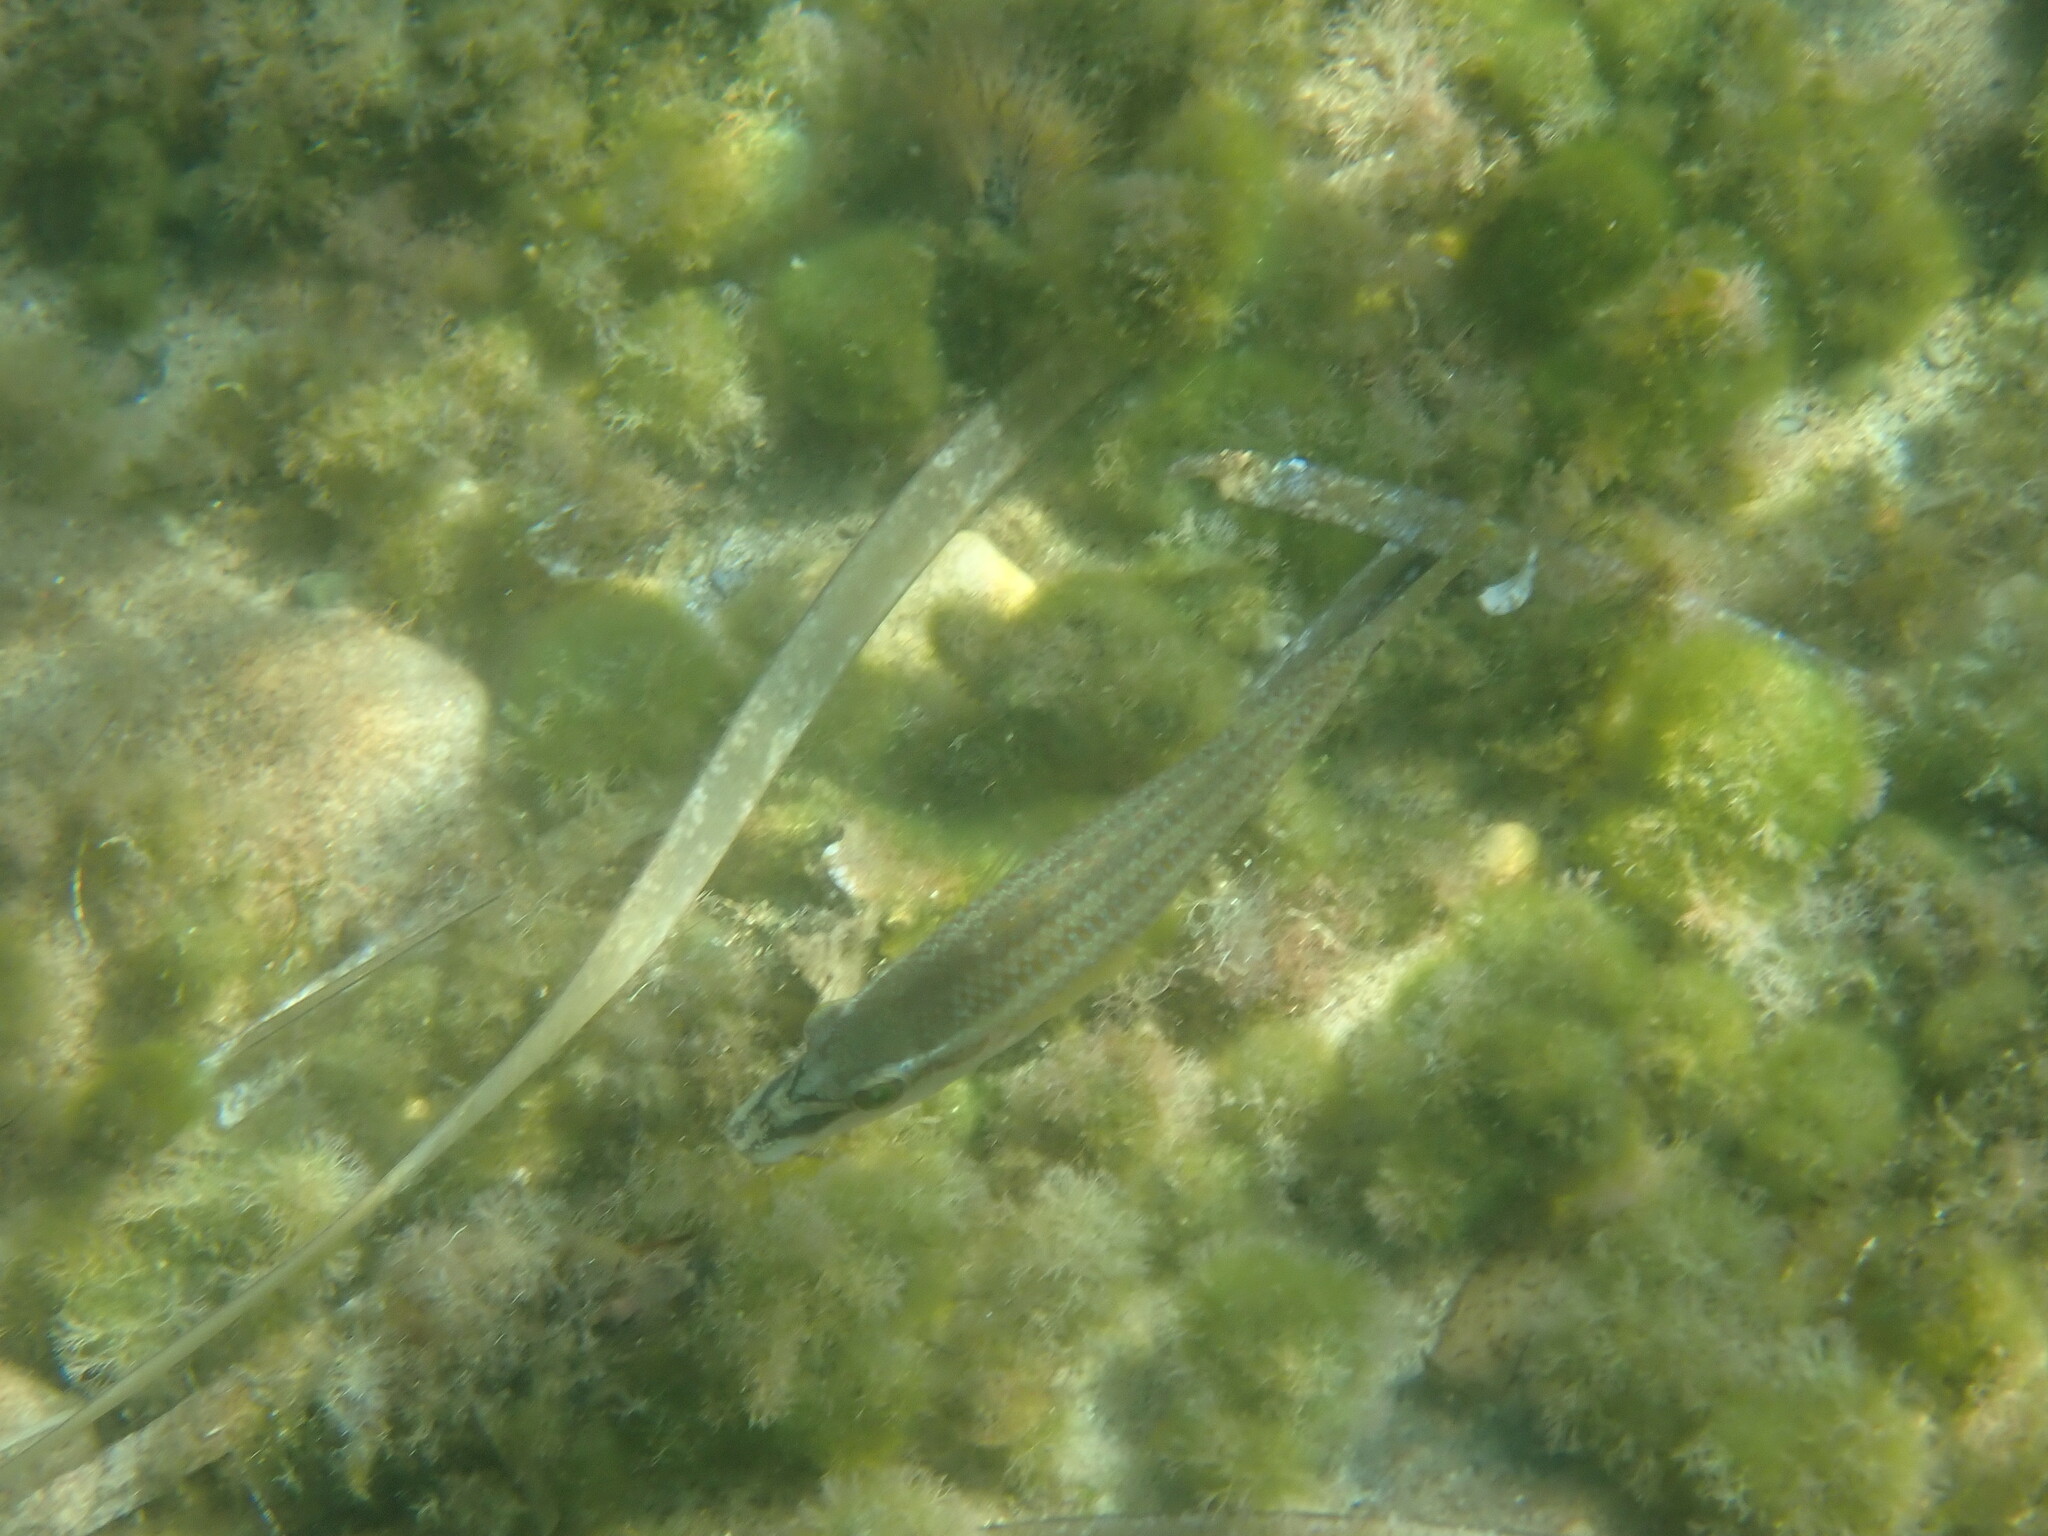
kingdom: Animalia
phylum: Chordata
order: Perciformes
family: Labridae
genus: Symphodus
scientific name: Symphodus tinca
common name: Peacock wrasse
